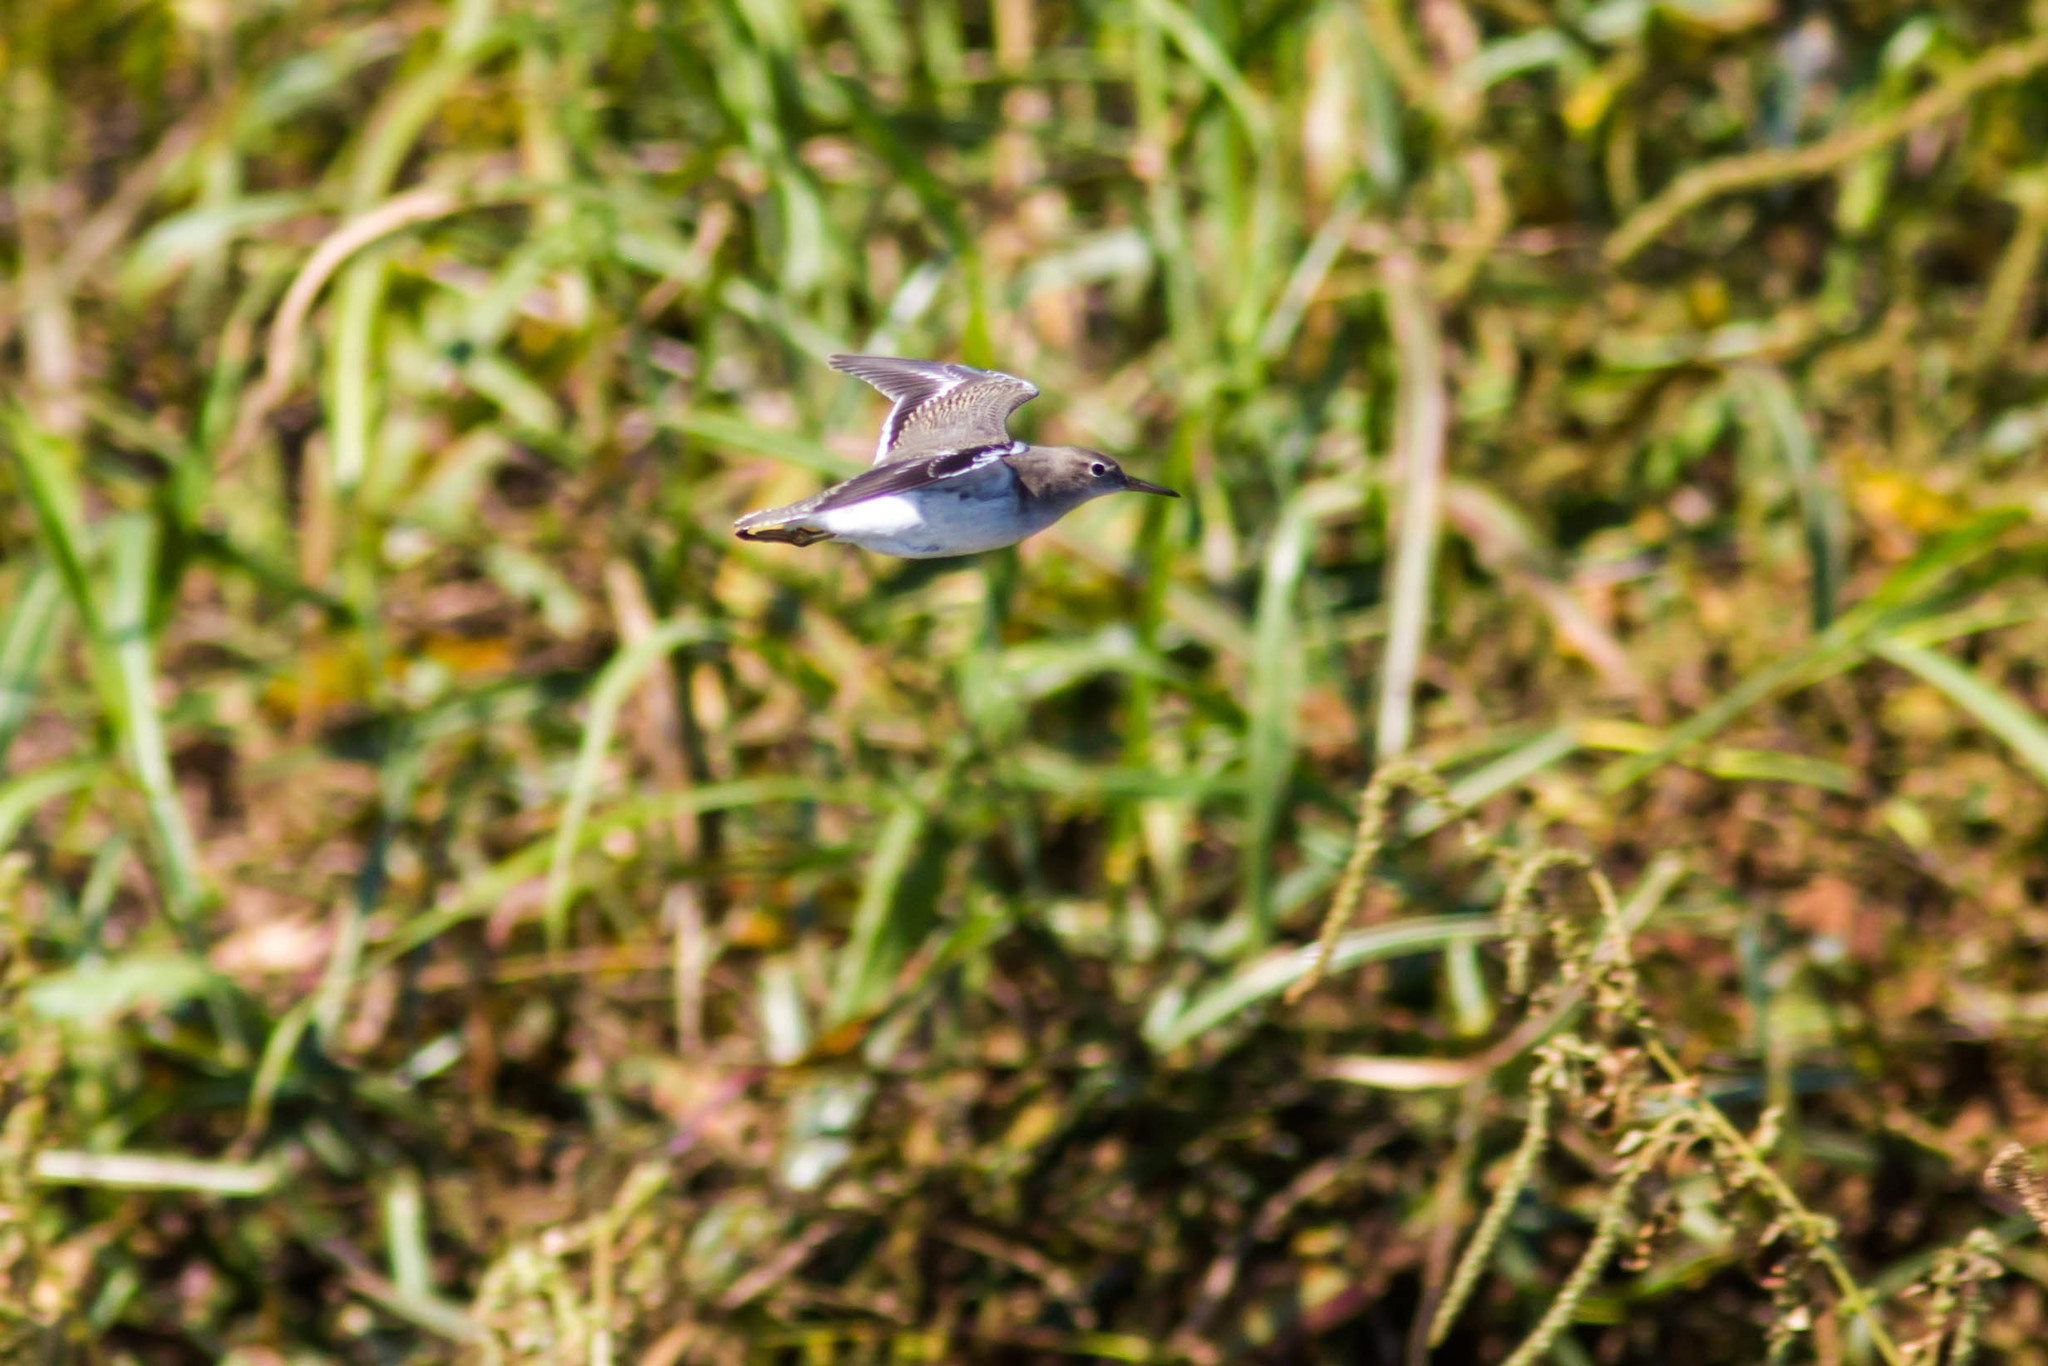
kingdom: Animalia
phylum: Chordata
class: Aves
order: Charadriiformes
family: Scolopacidae
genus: Actitis
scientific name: Actitis macularius
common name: Spotted sandpiper
